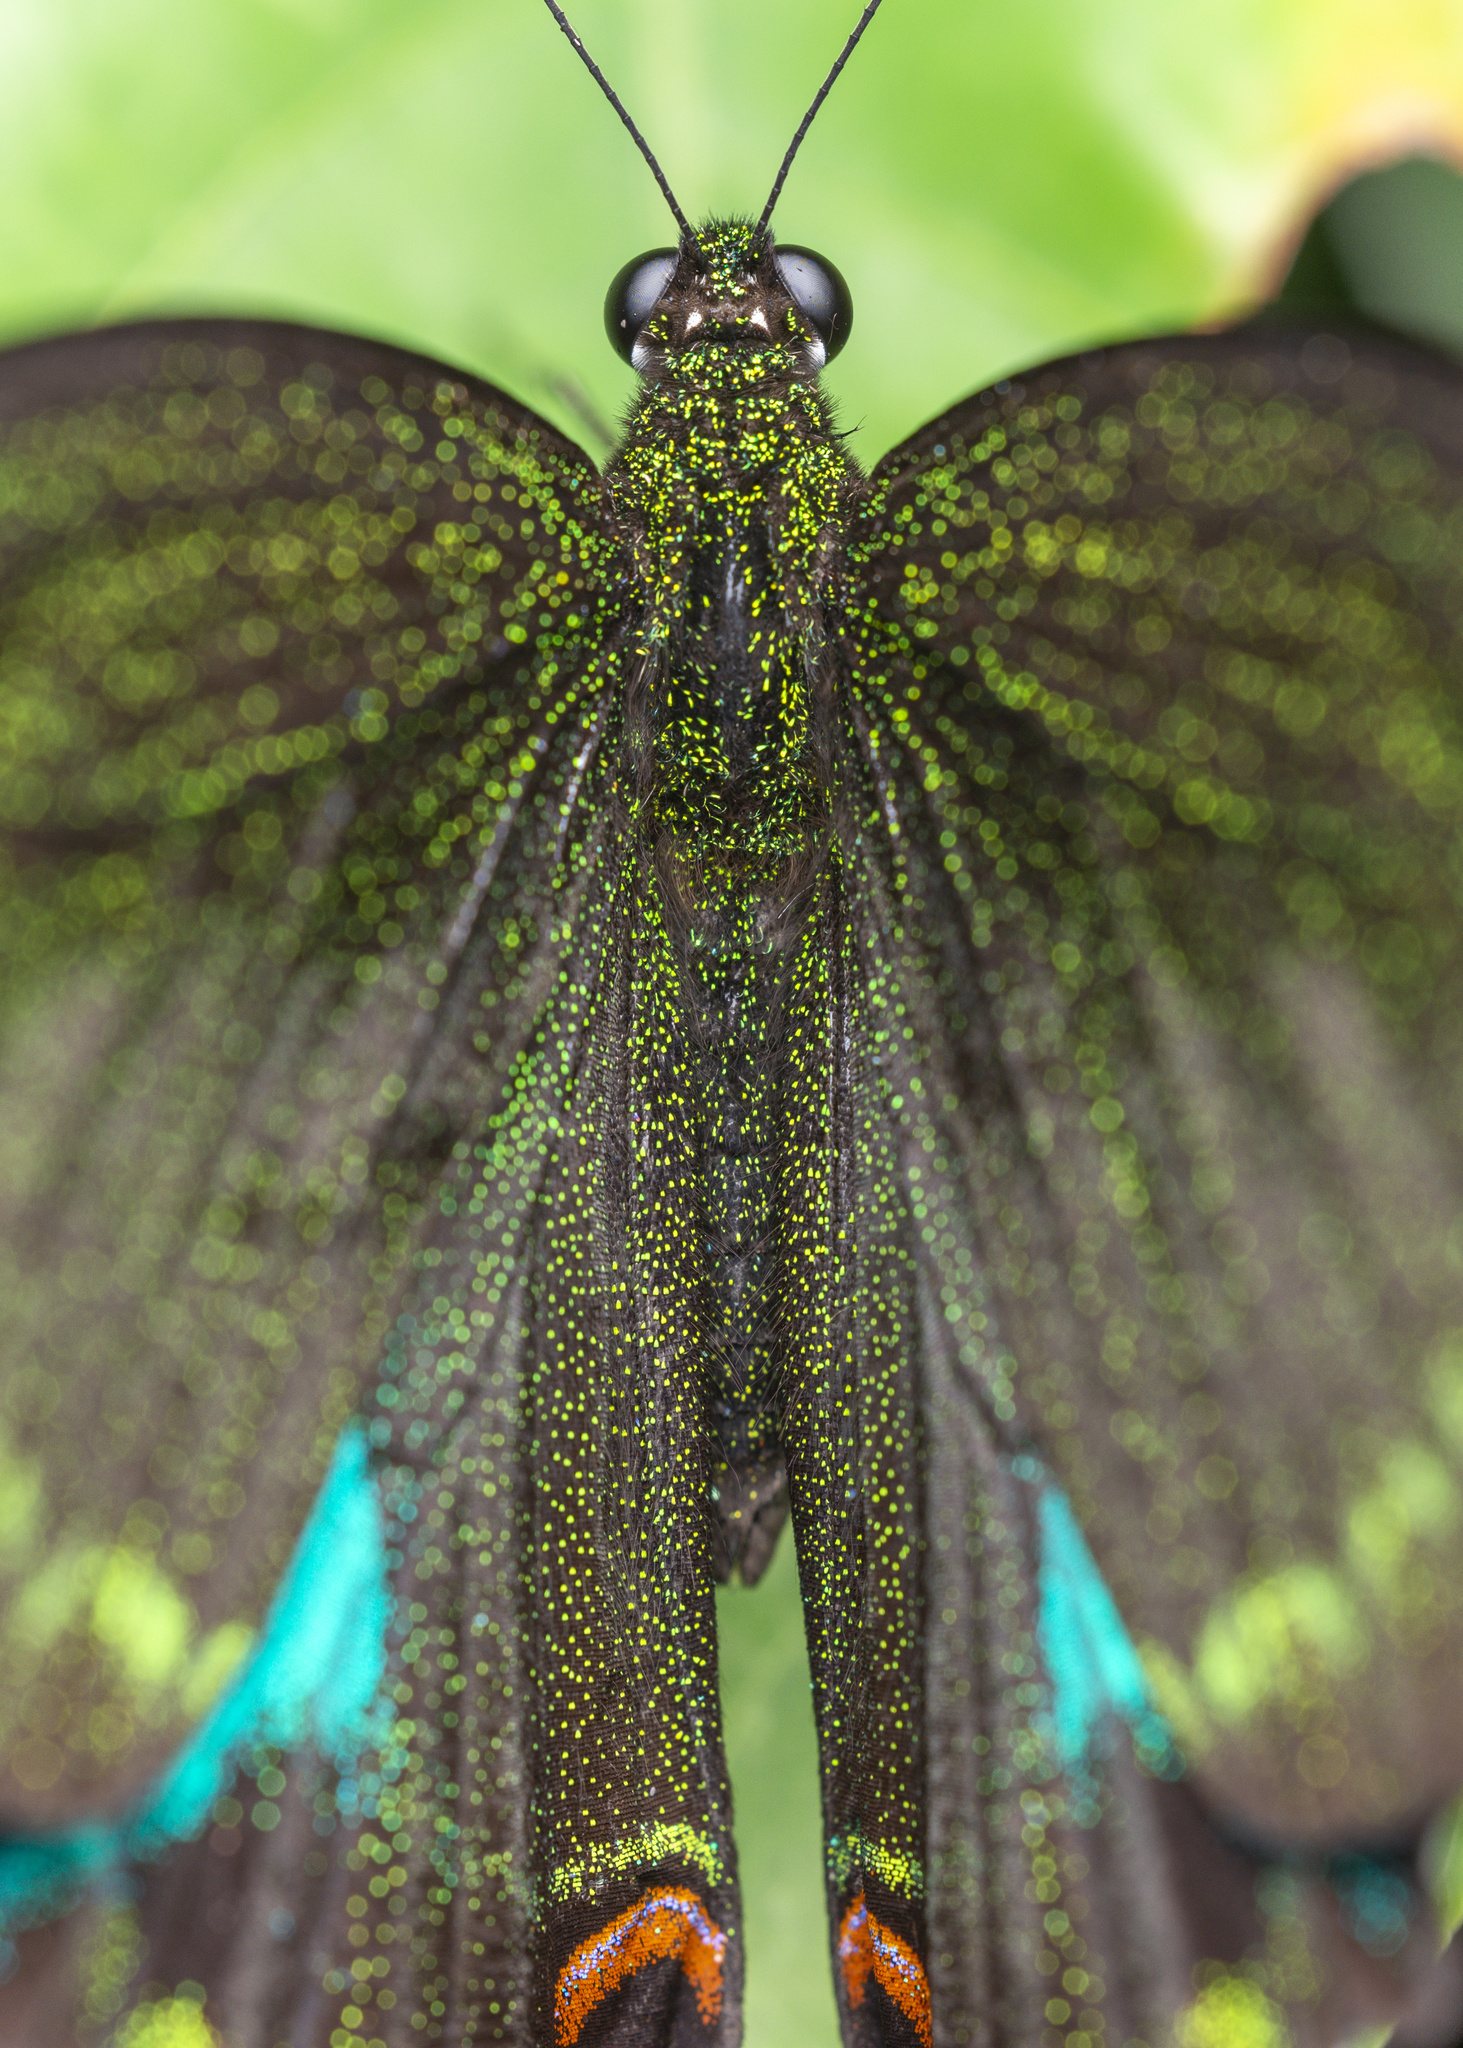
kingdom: Animalia
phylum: Arthropoda
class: Insecta
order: Lepidoptera
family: Papilionidae
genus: Papilio
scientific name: Papilio paris
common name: Paris peacock
